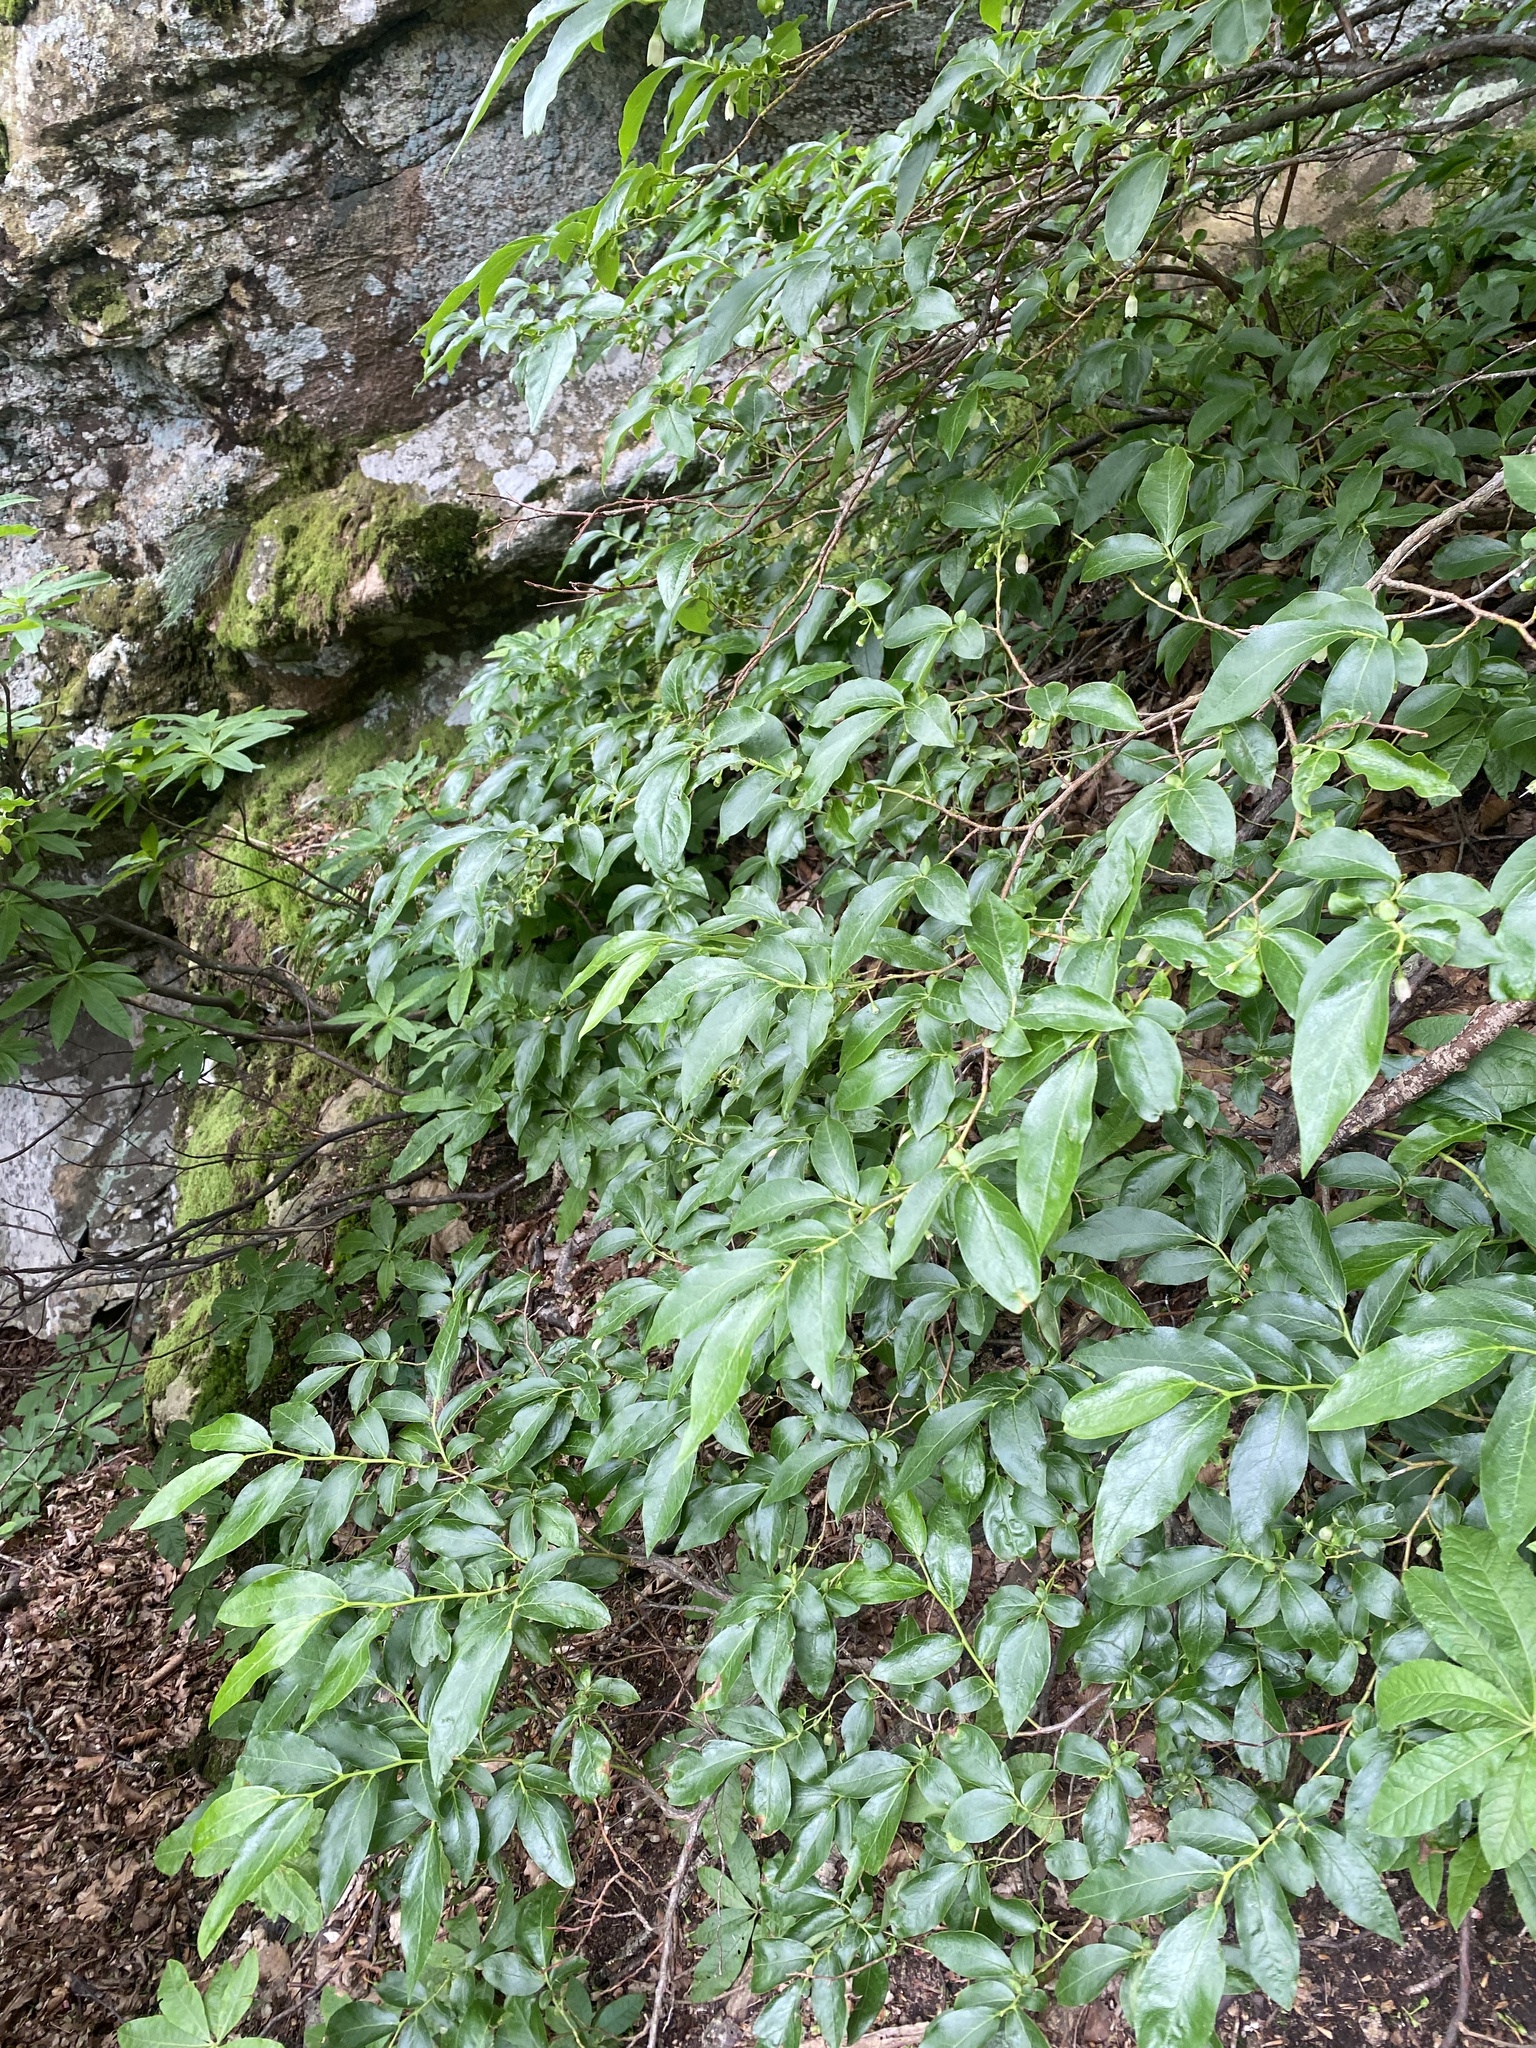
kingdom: Plantae
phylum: Tracheophyta
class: Magnoliopsida
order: Ericales
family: Ericaceae
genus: Vaccinium
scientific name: Vaccinium arctostaphylos
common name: Caucasian whortleberry
